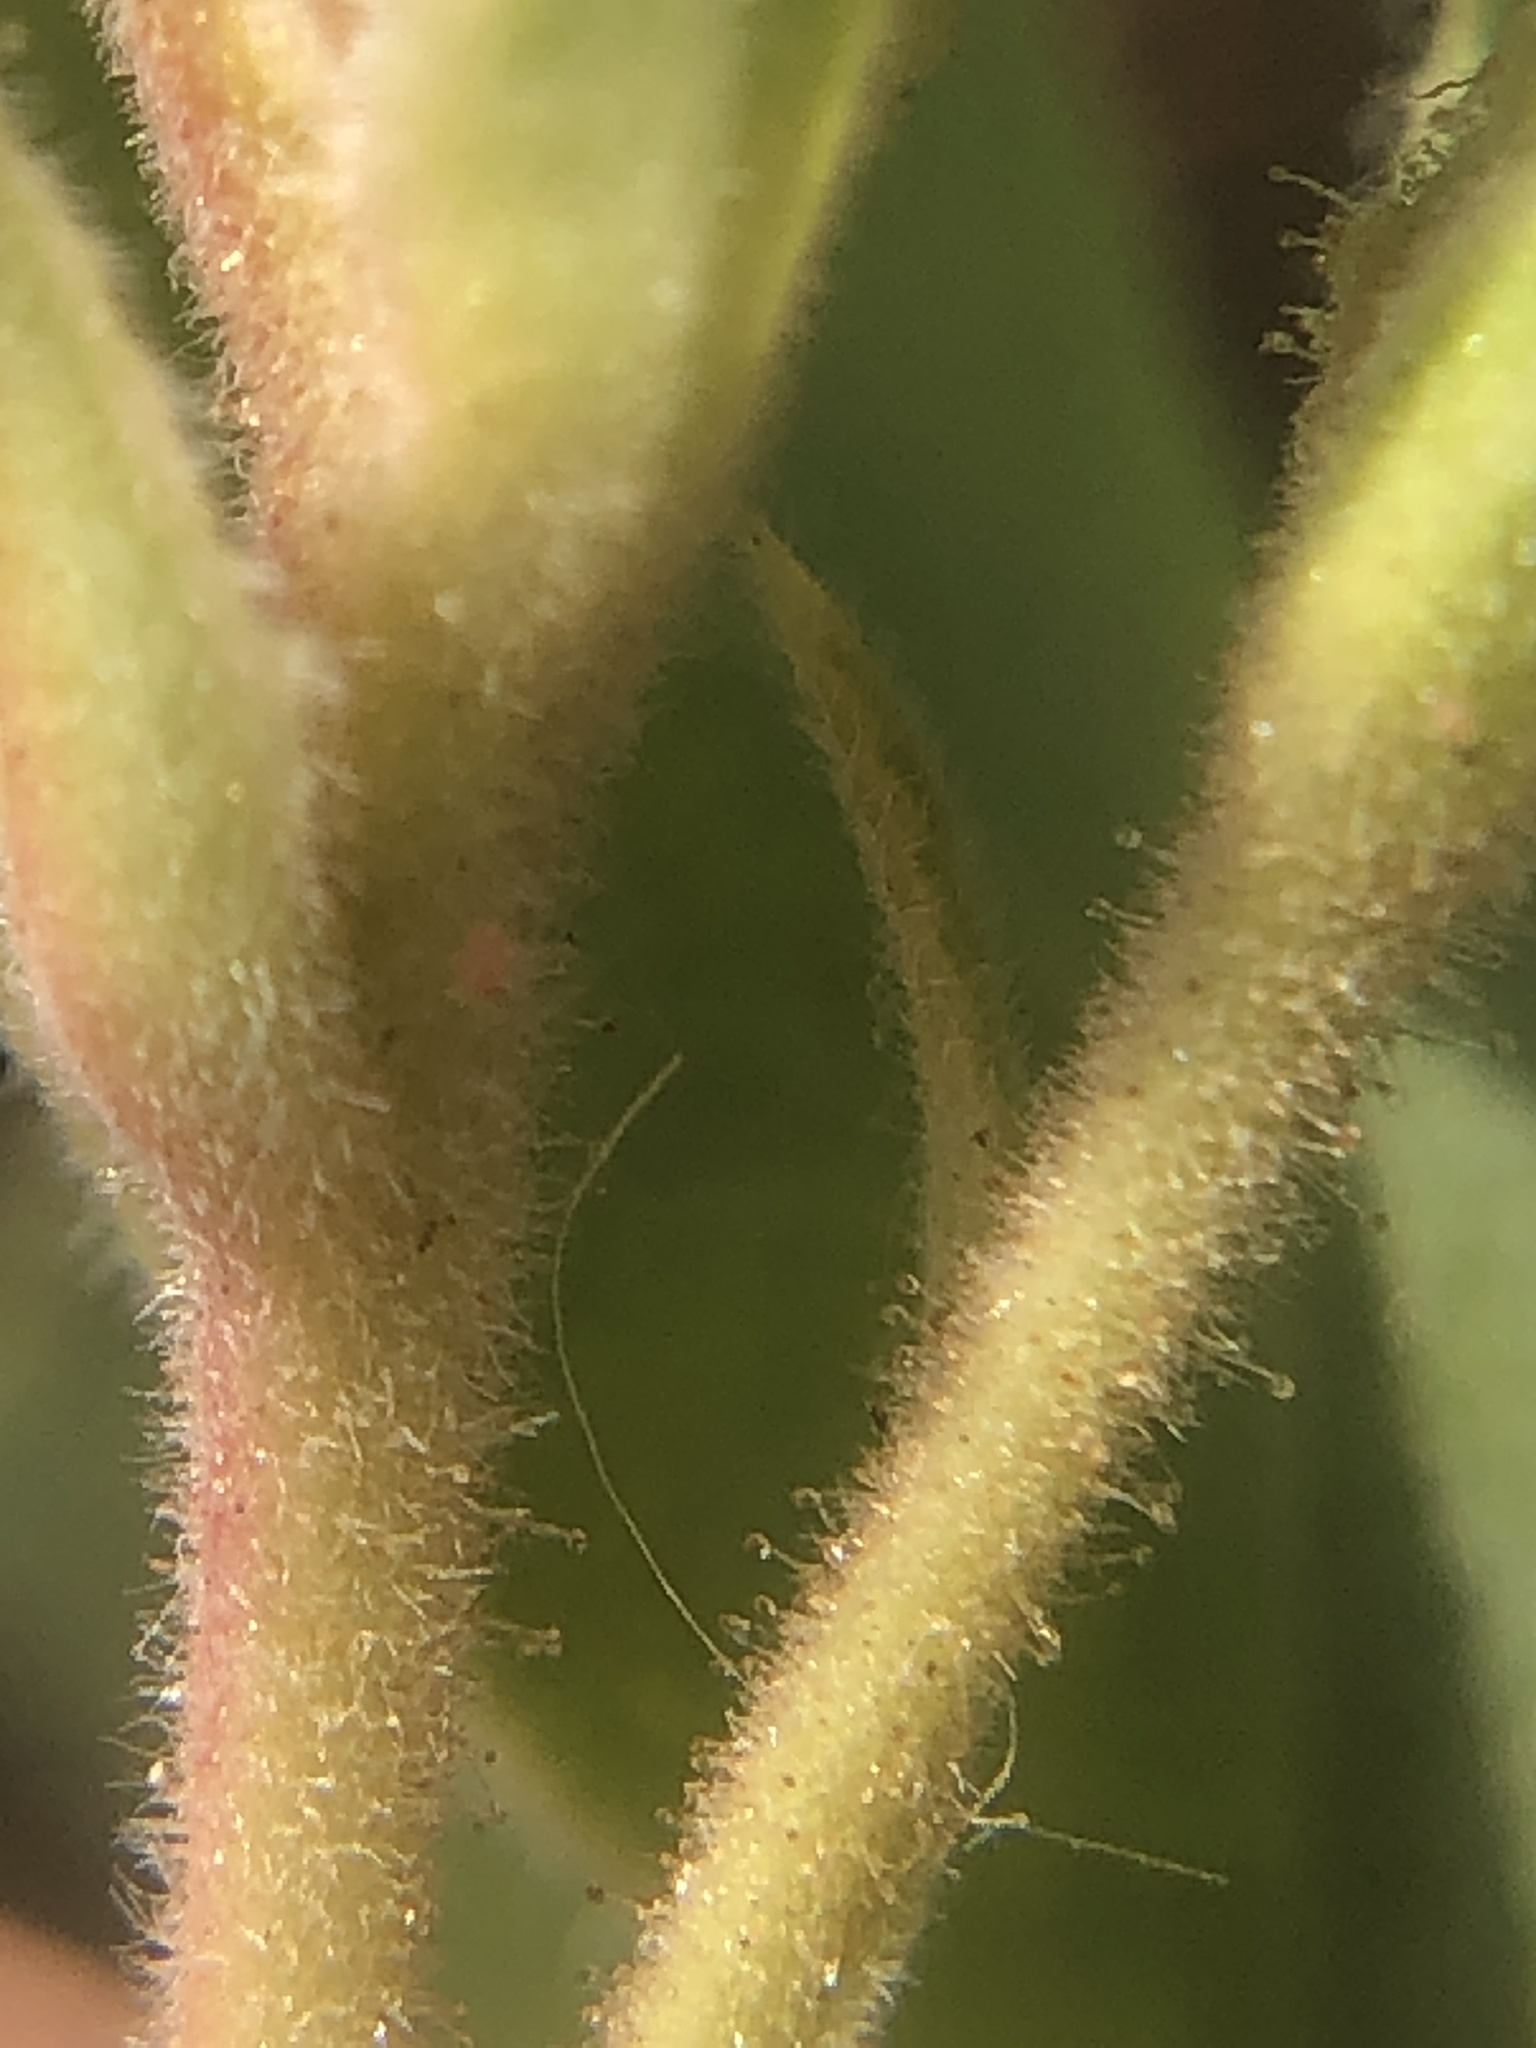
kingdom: Plantae
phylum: Tracheophyta
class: Magnoliopsida
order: Ericales
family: Ericaceae
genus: Arctostaphylos
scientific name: Arctostaphylos glandulosa
